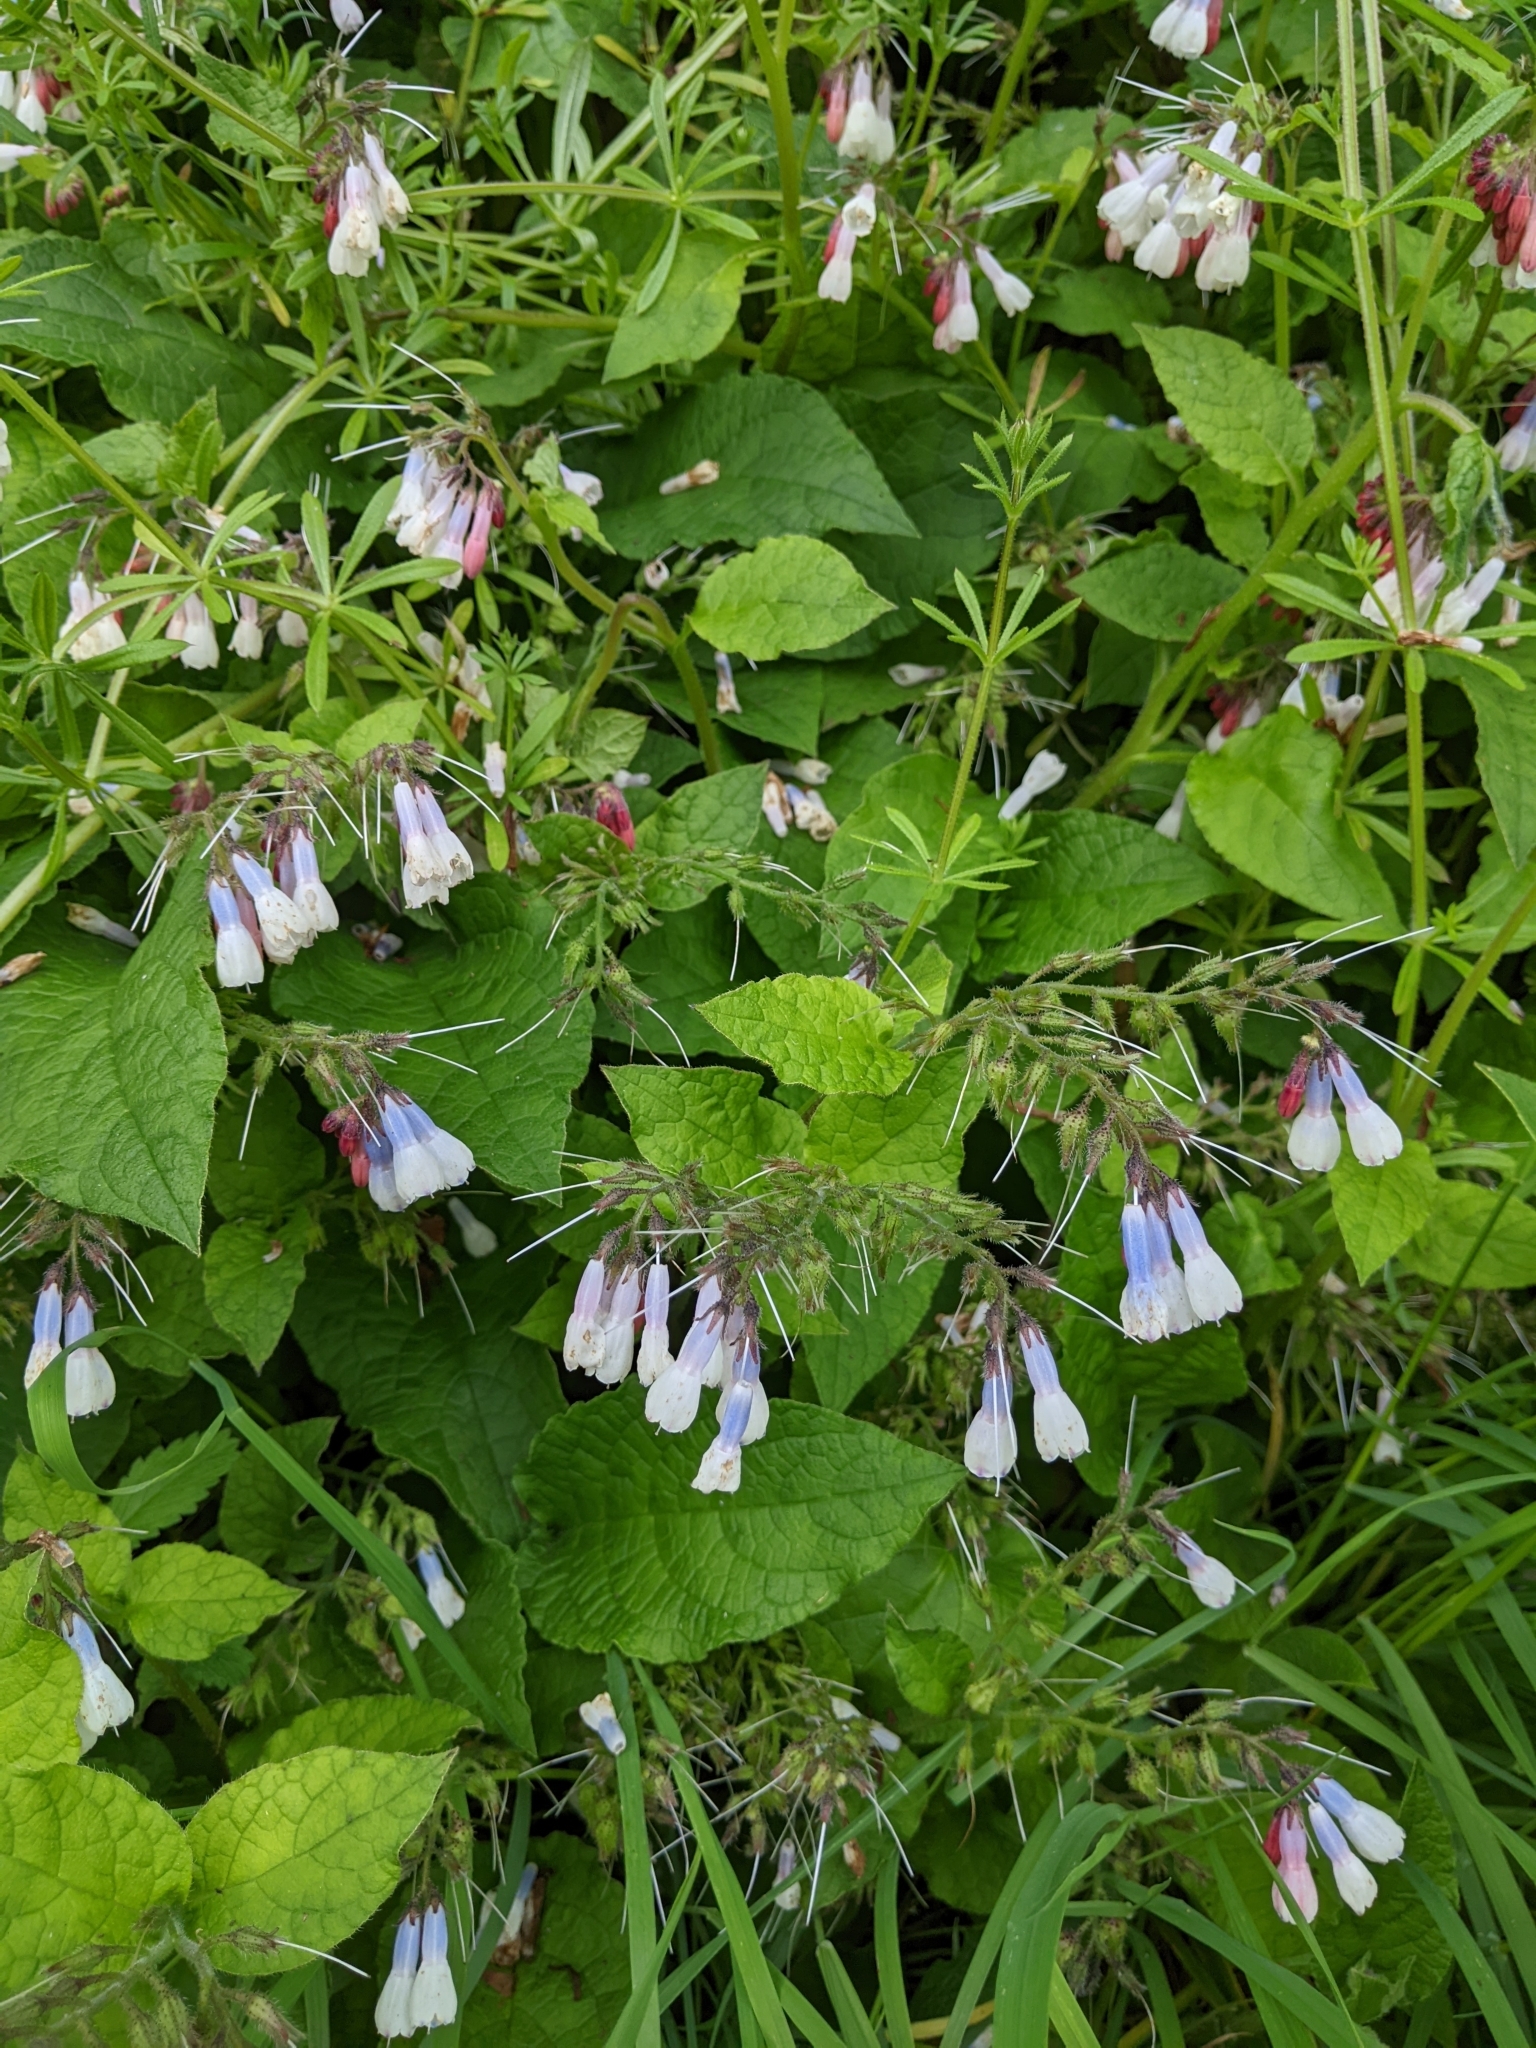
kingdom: Plantae
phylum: Tracheophyta
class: Magnoliopsida
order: Boraginales
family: Boraginaceae
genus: Symphytum
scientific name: Symphytum hidcotense
